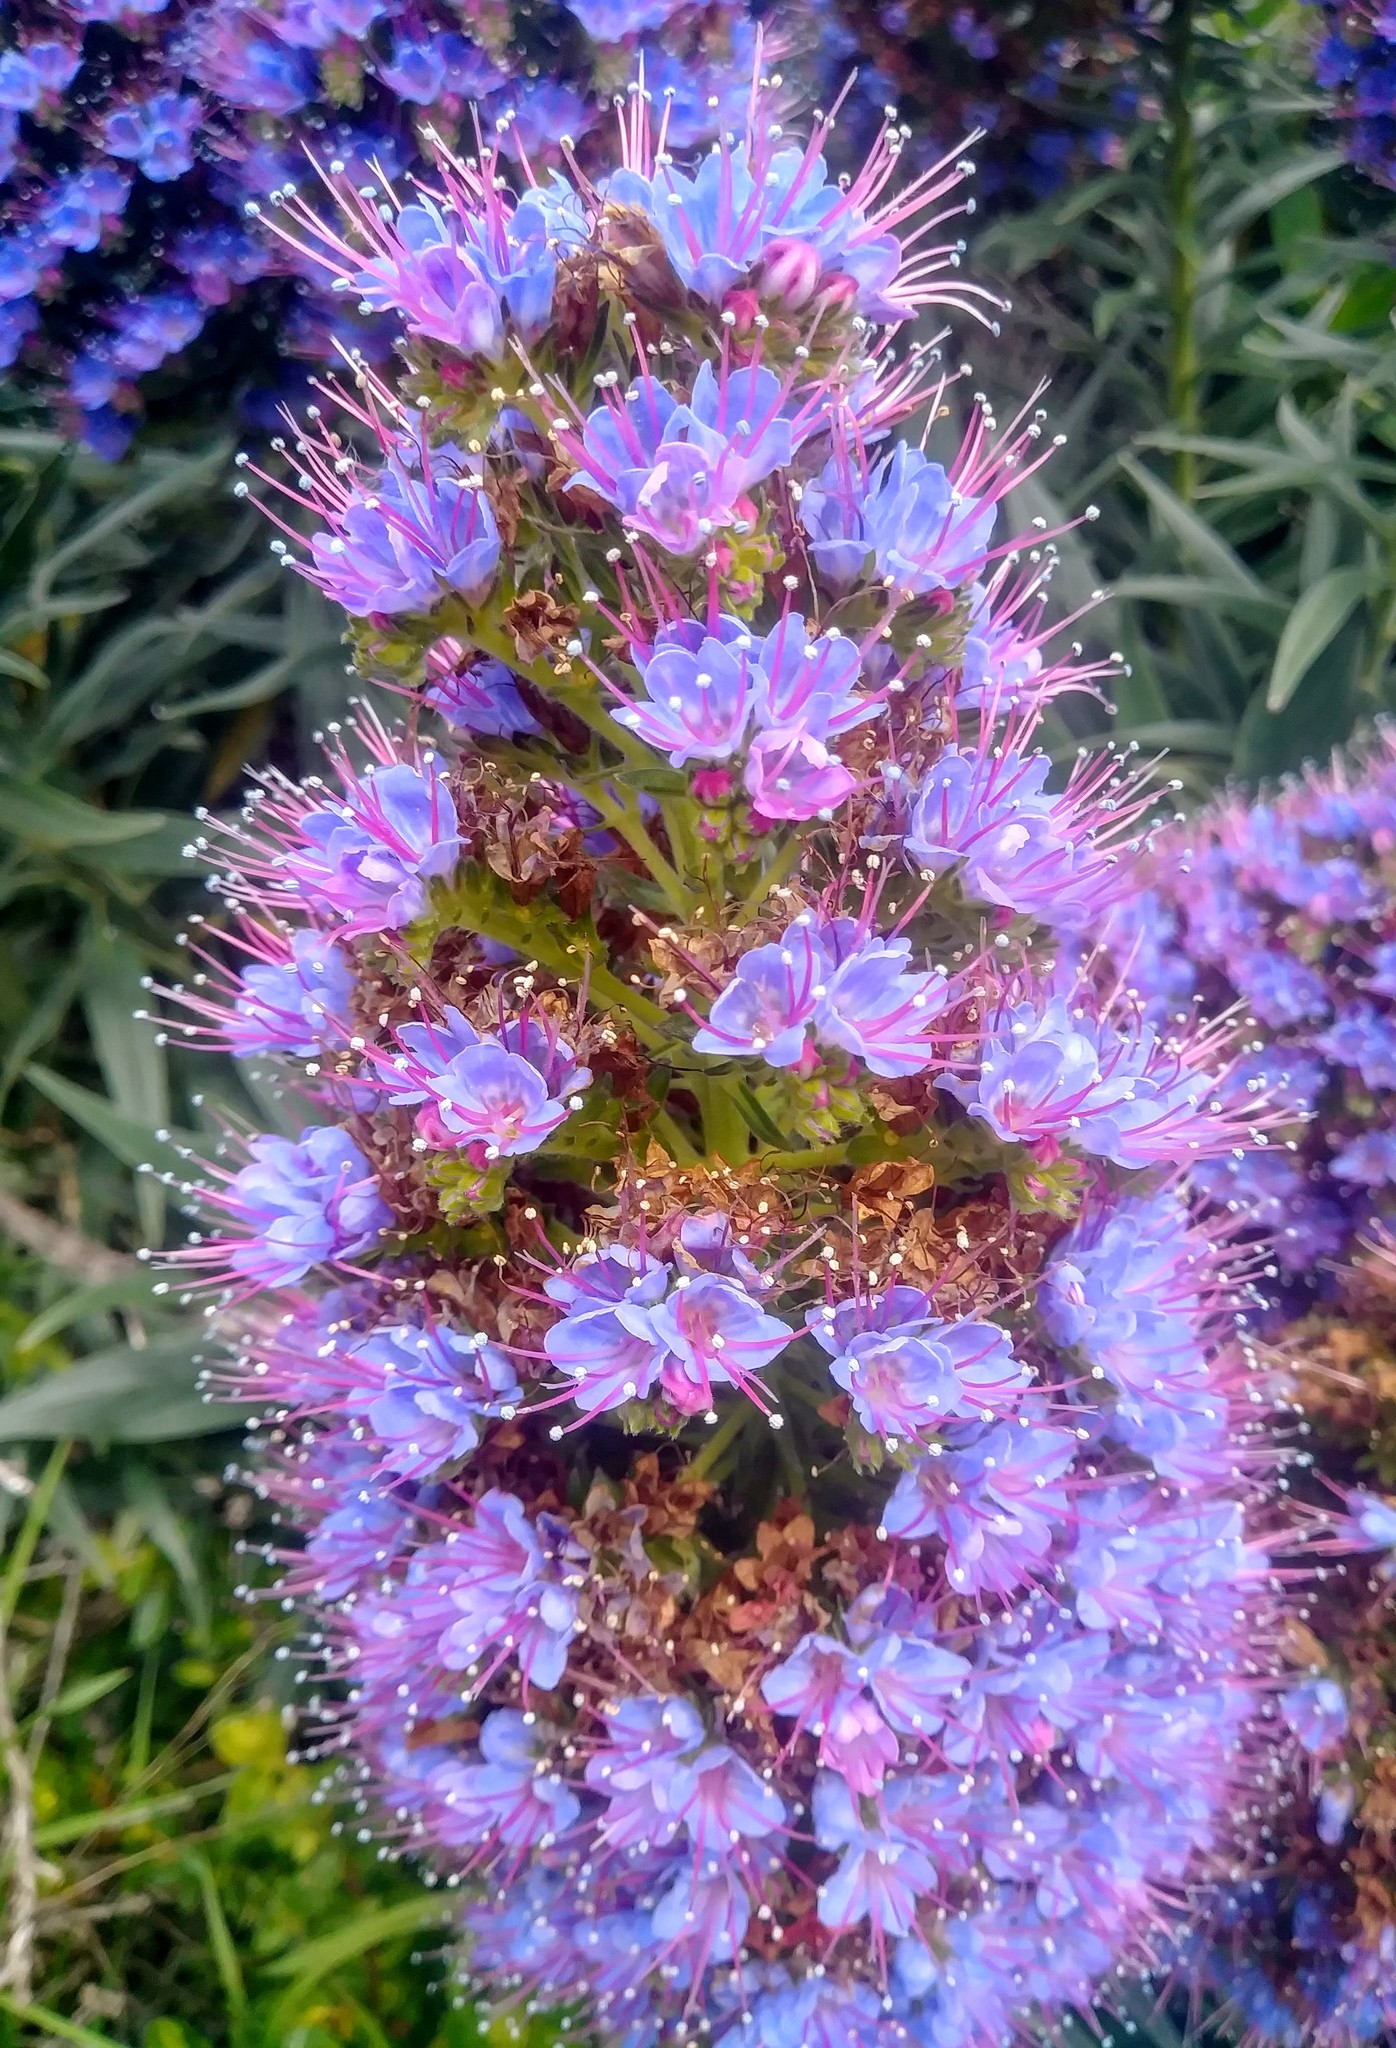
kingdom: Plantae
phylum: Tracheophyta
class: Magnoliopsida
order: Boraginales
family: Boraginaceae
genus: Echium
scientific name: Echium candicans
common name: Pride of madeira
